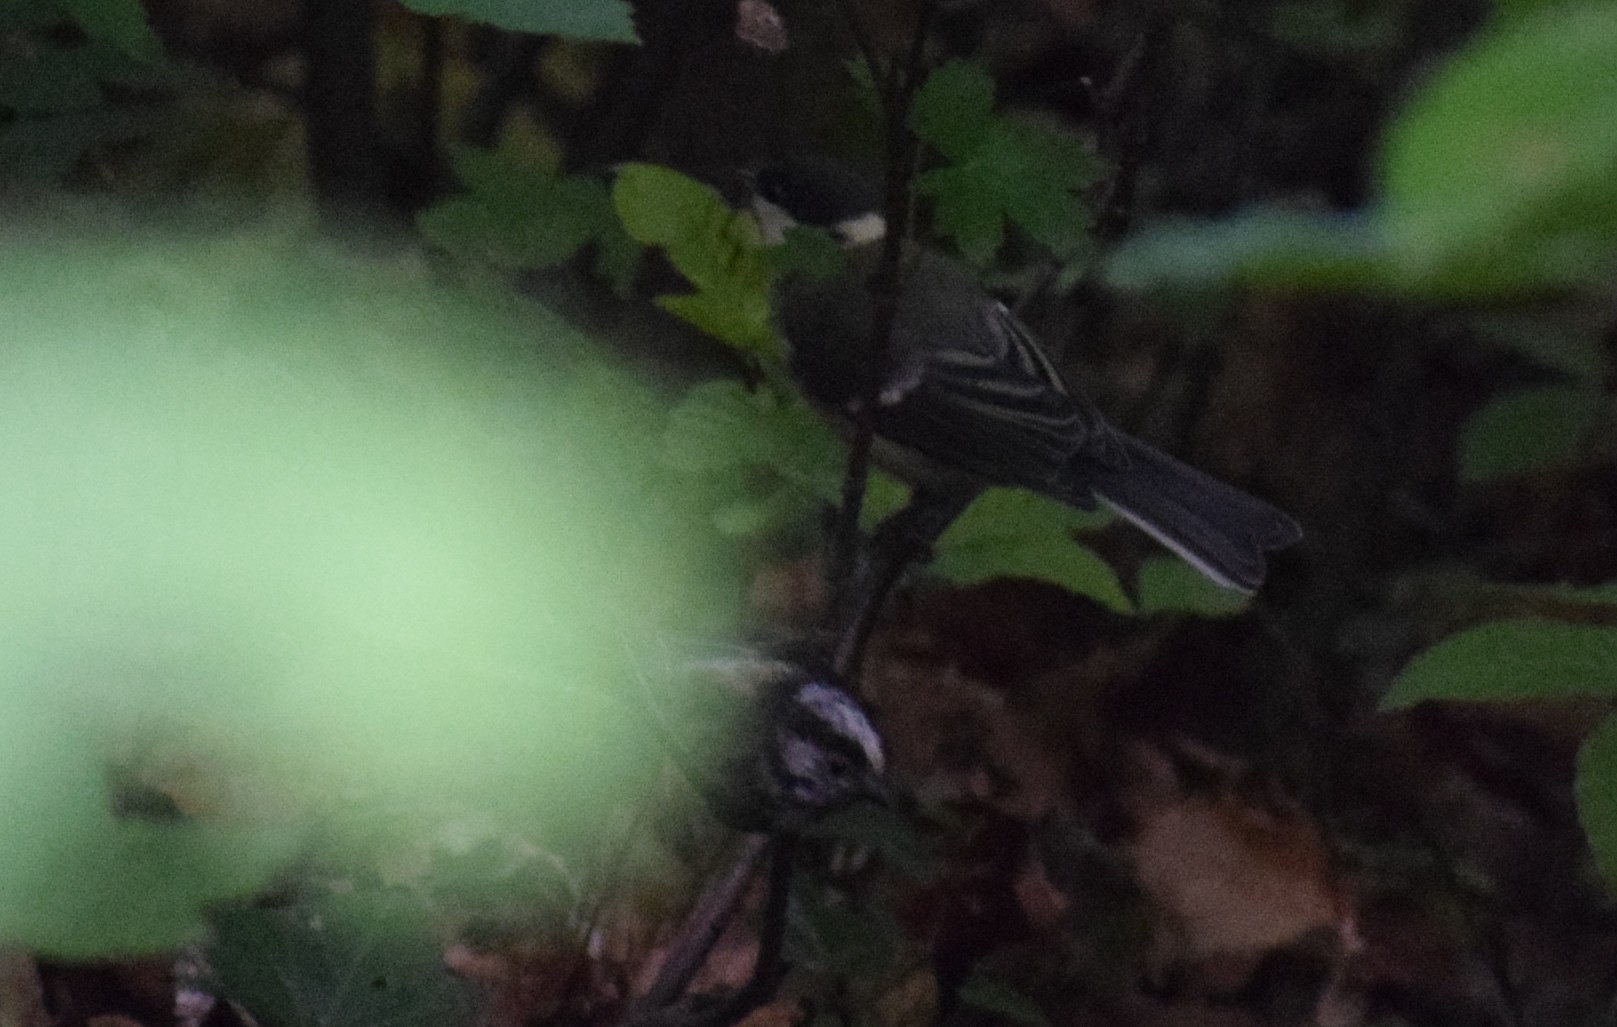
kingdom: Animalia
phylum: Chordata
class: Aves
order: Passeriformes
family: Aegithalidae
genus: Aegithalos
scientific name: Aegithalos caudatus
